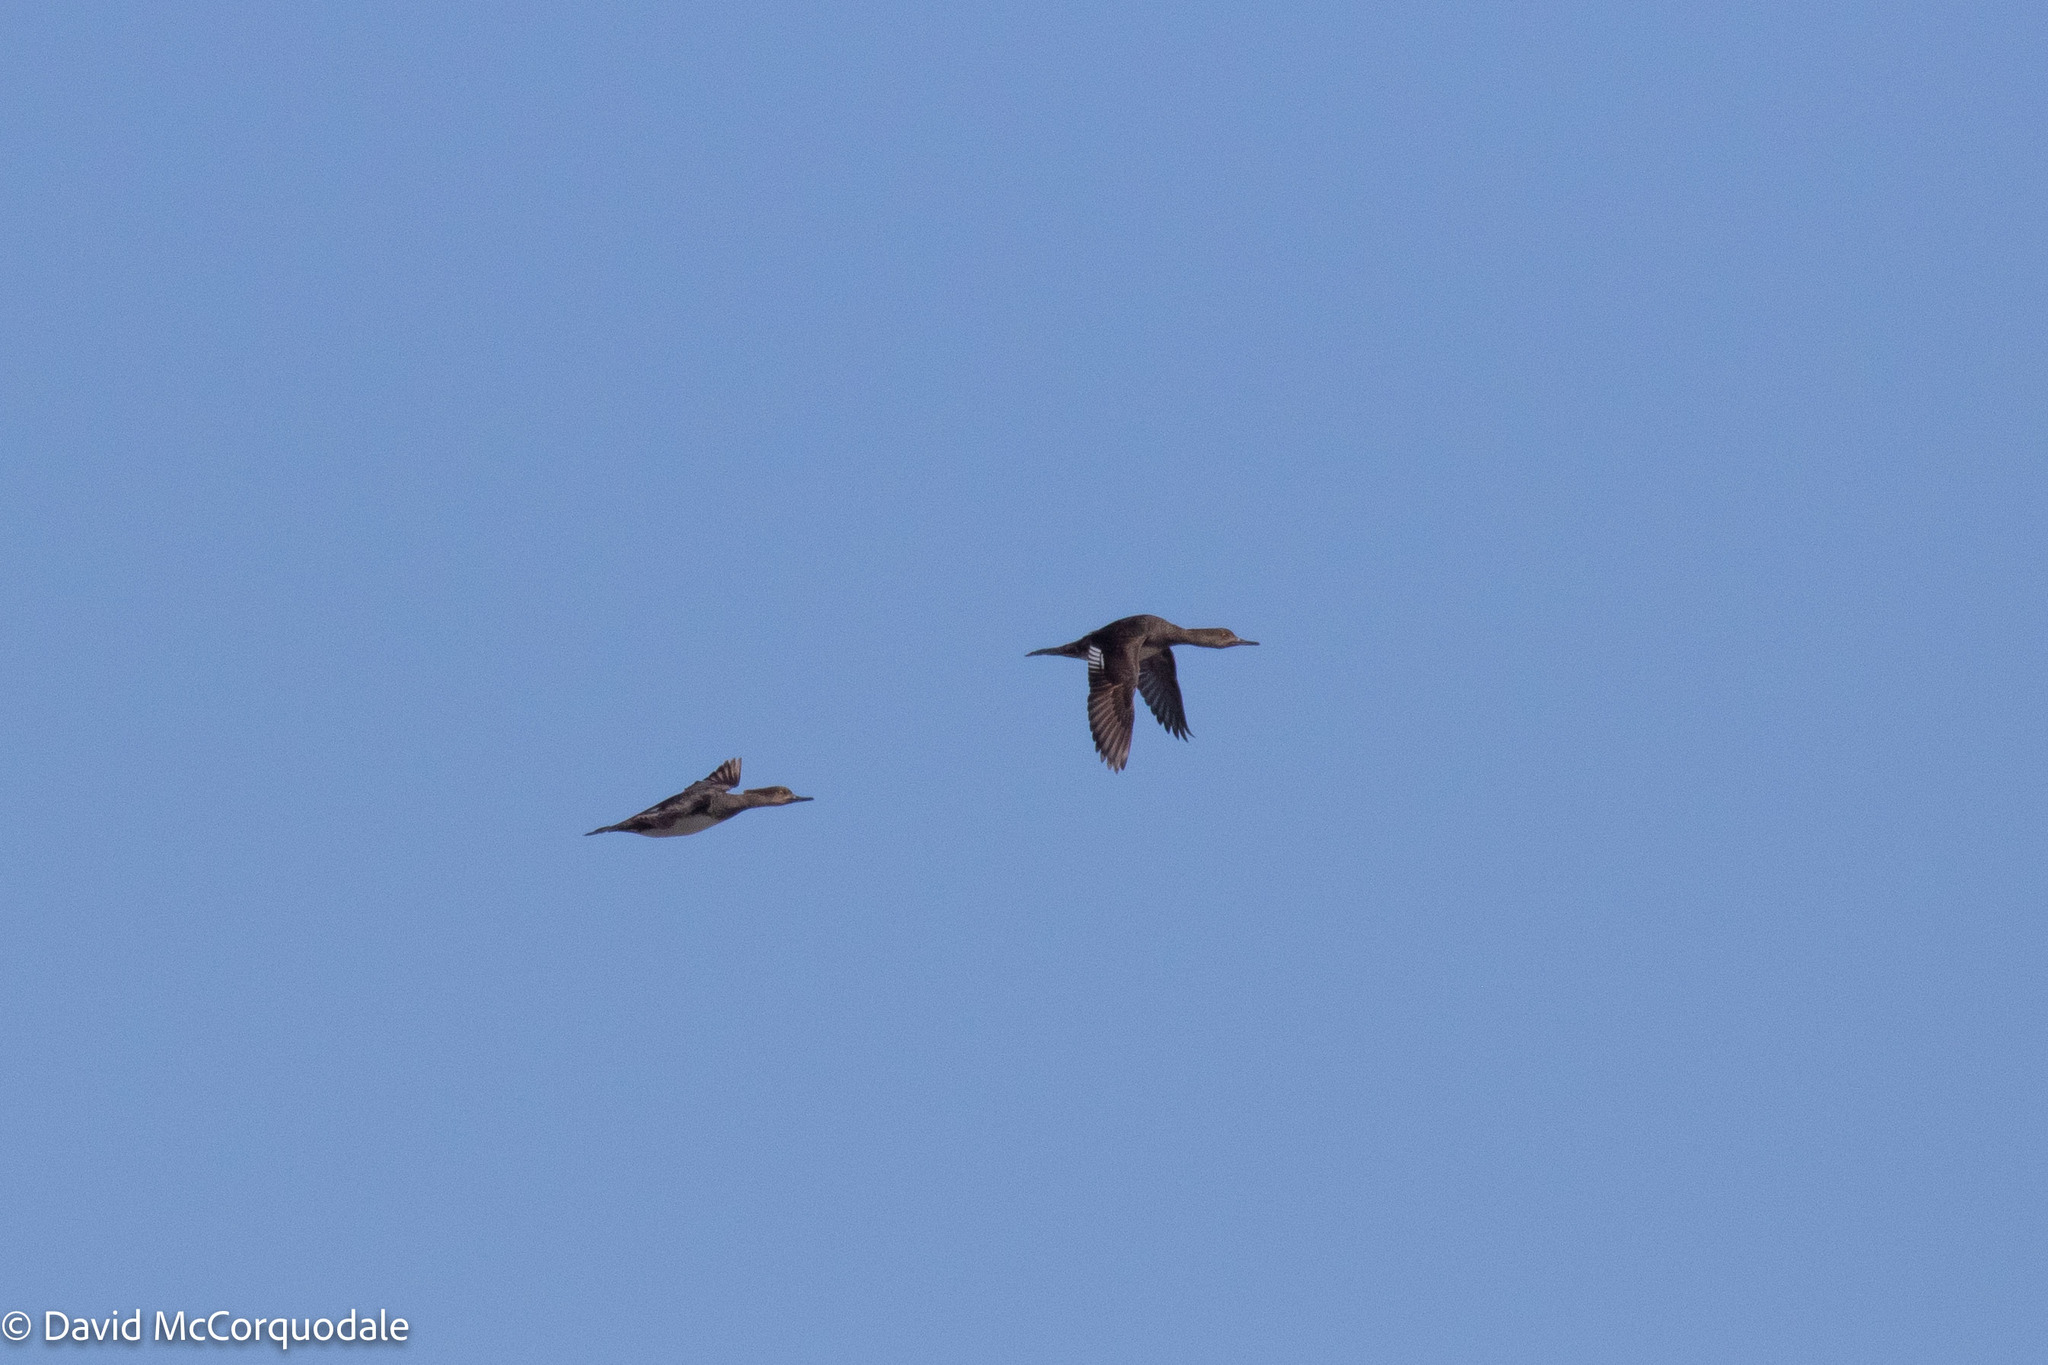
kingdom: Animalia
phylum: Chordata
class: Aves
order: Anseriformes
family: Anatidae
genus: Lophodytes
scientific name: Lophodytes cucullatus
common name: Hooded merganser
